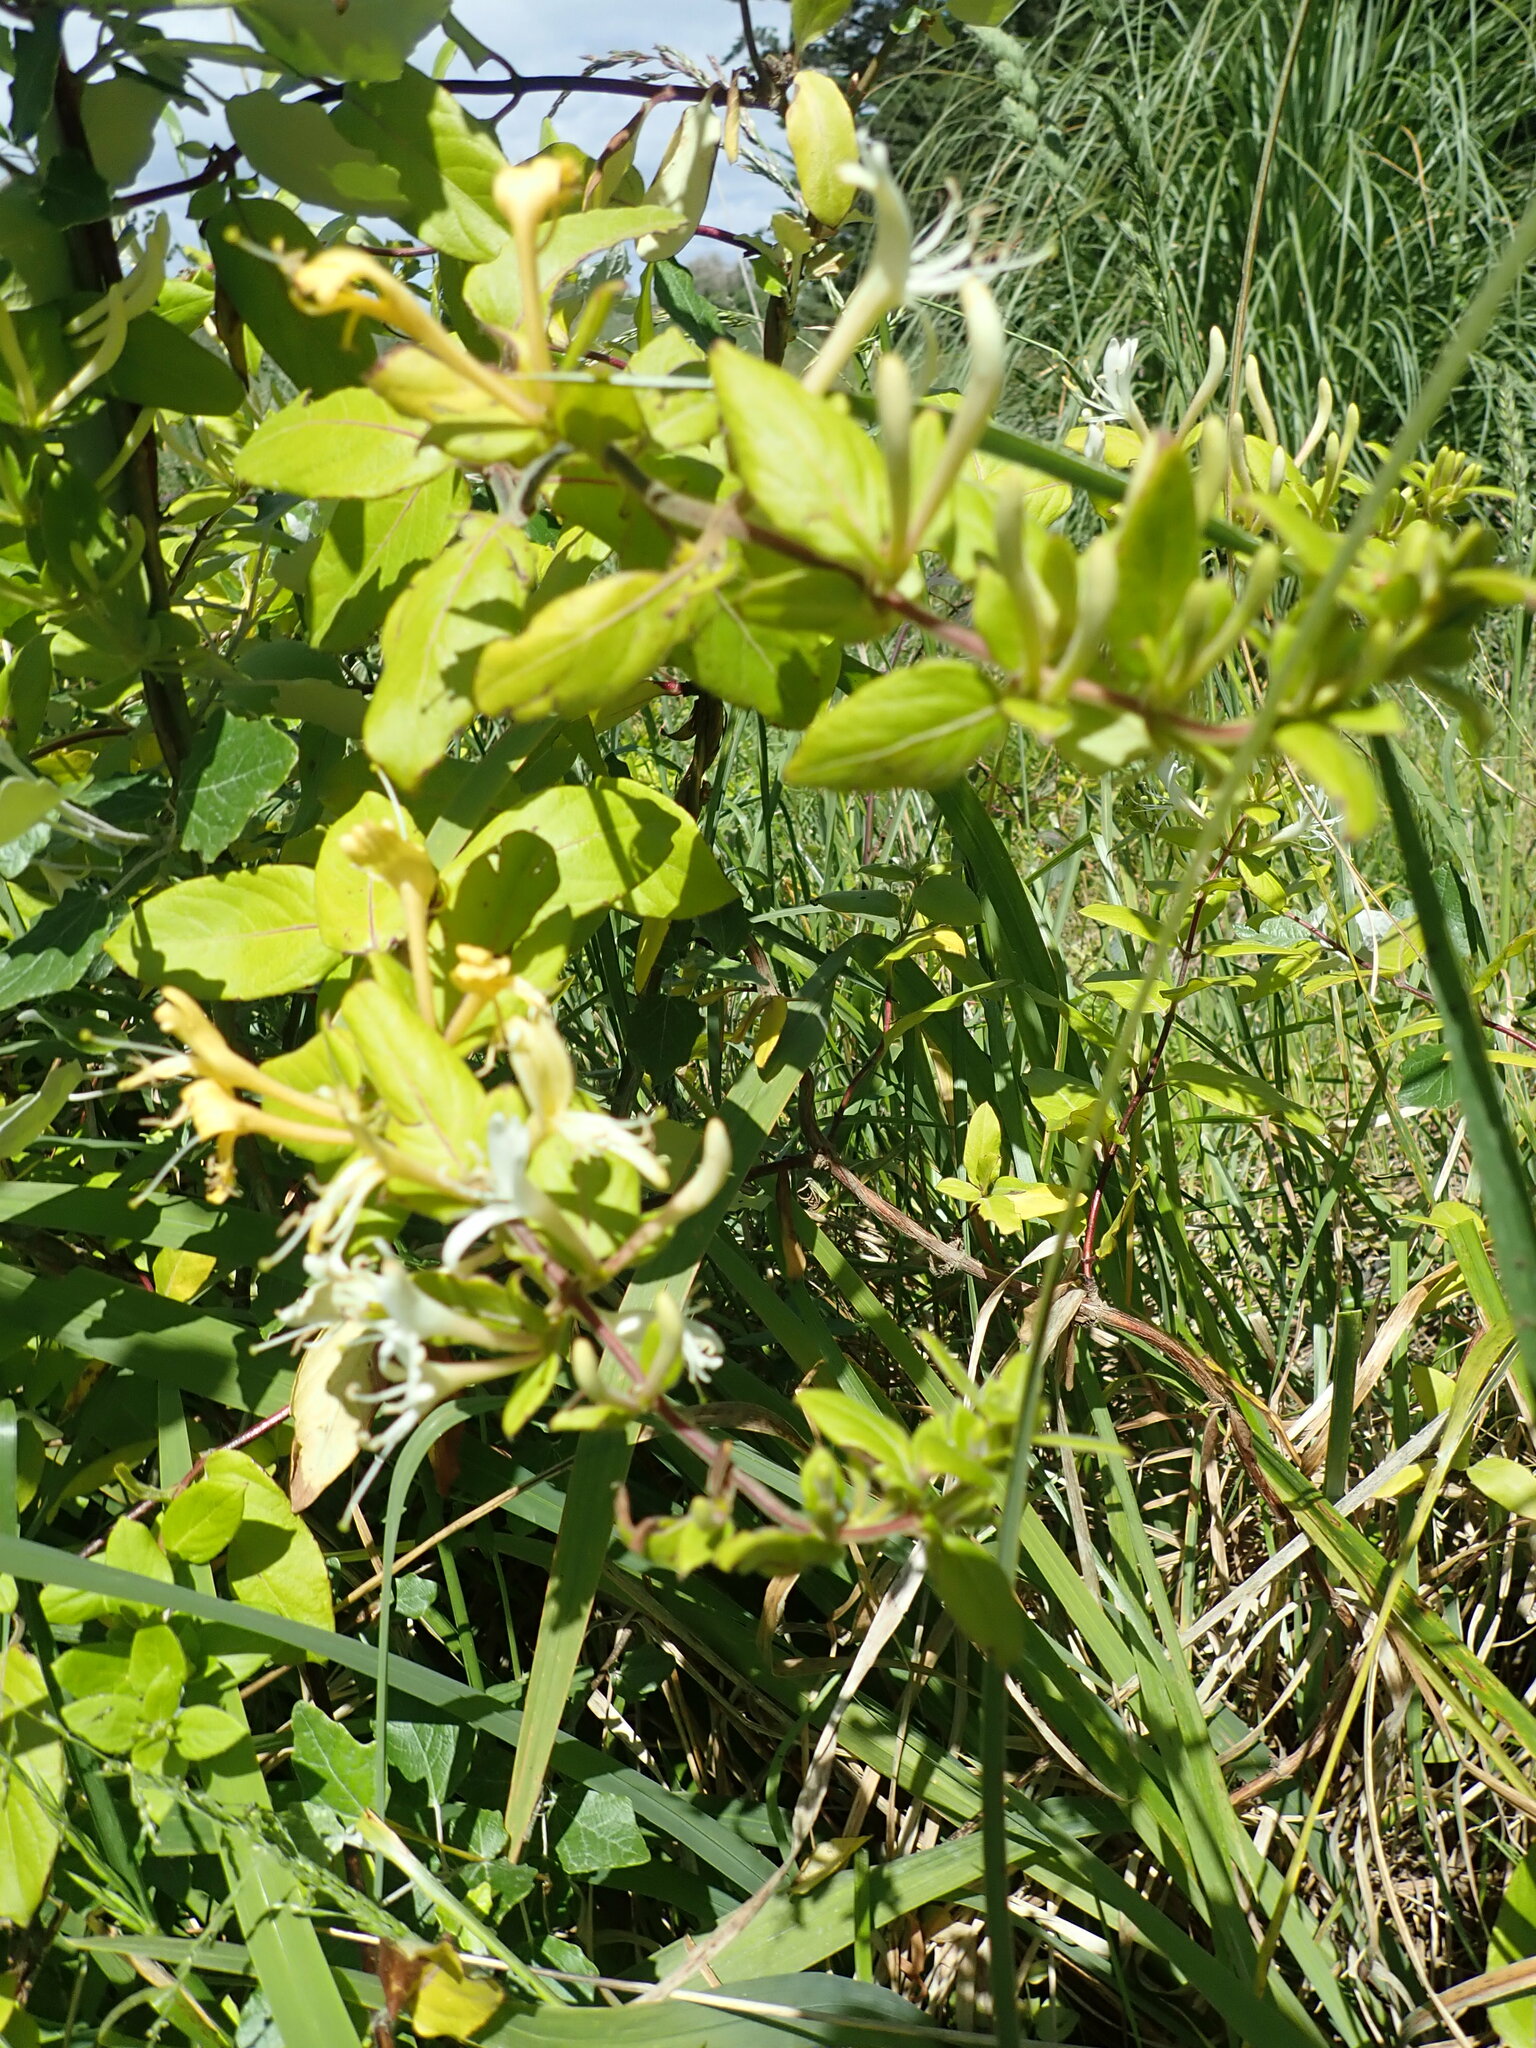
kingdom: Plantae
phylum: Tracheophyta
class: Magnoliopsida
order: Dipsacales
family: Caprifoliaceae
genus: Lonicera
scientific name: Lonicera japonica
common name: Japanese honeysuckle
